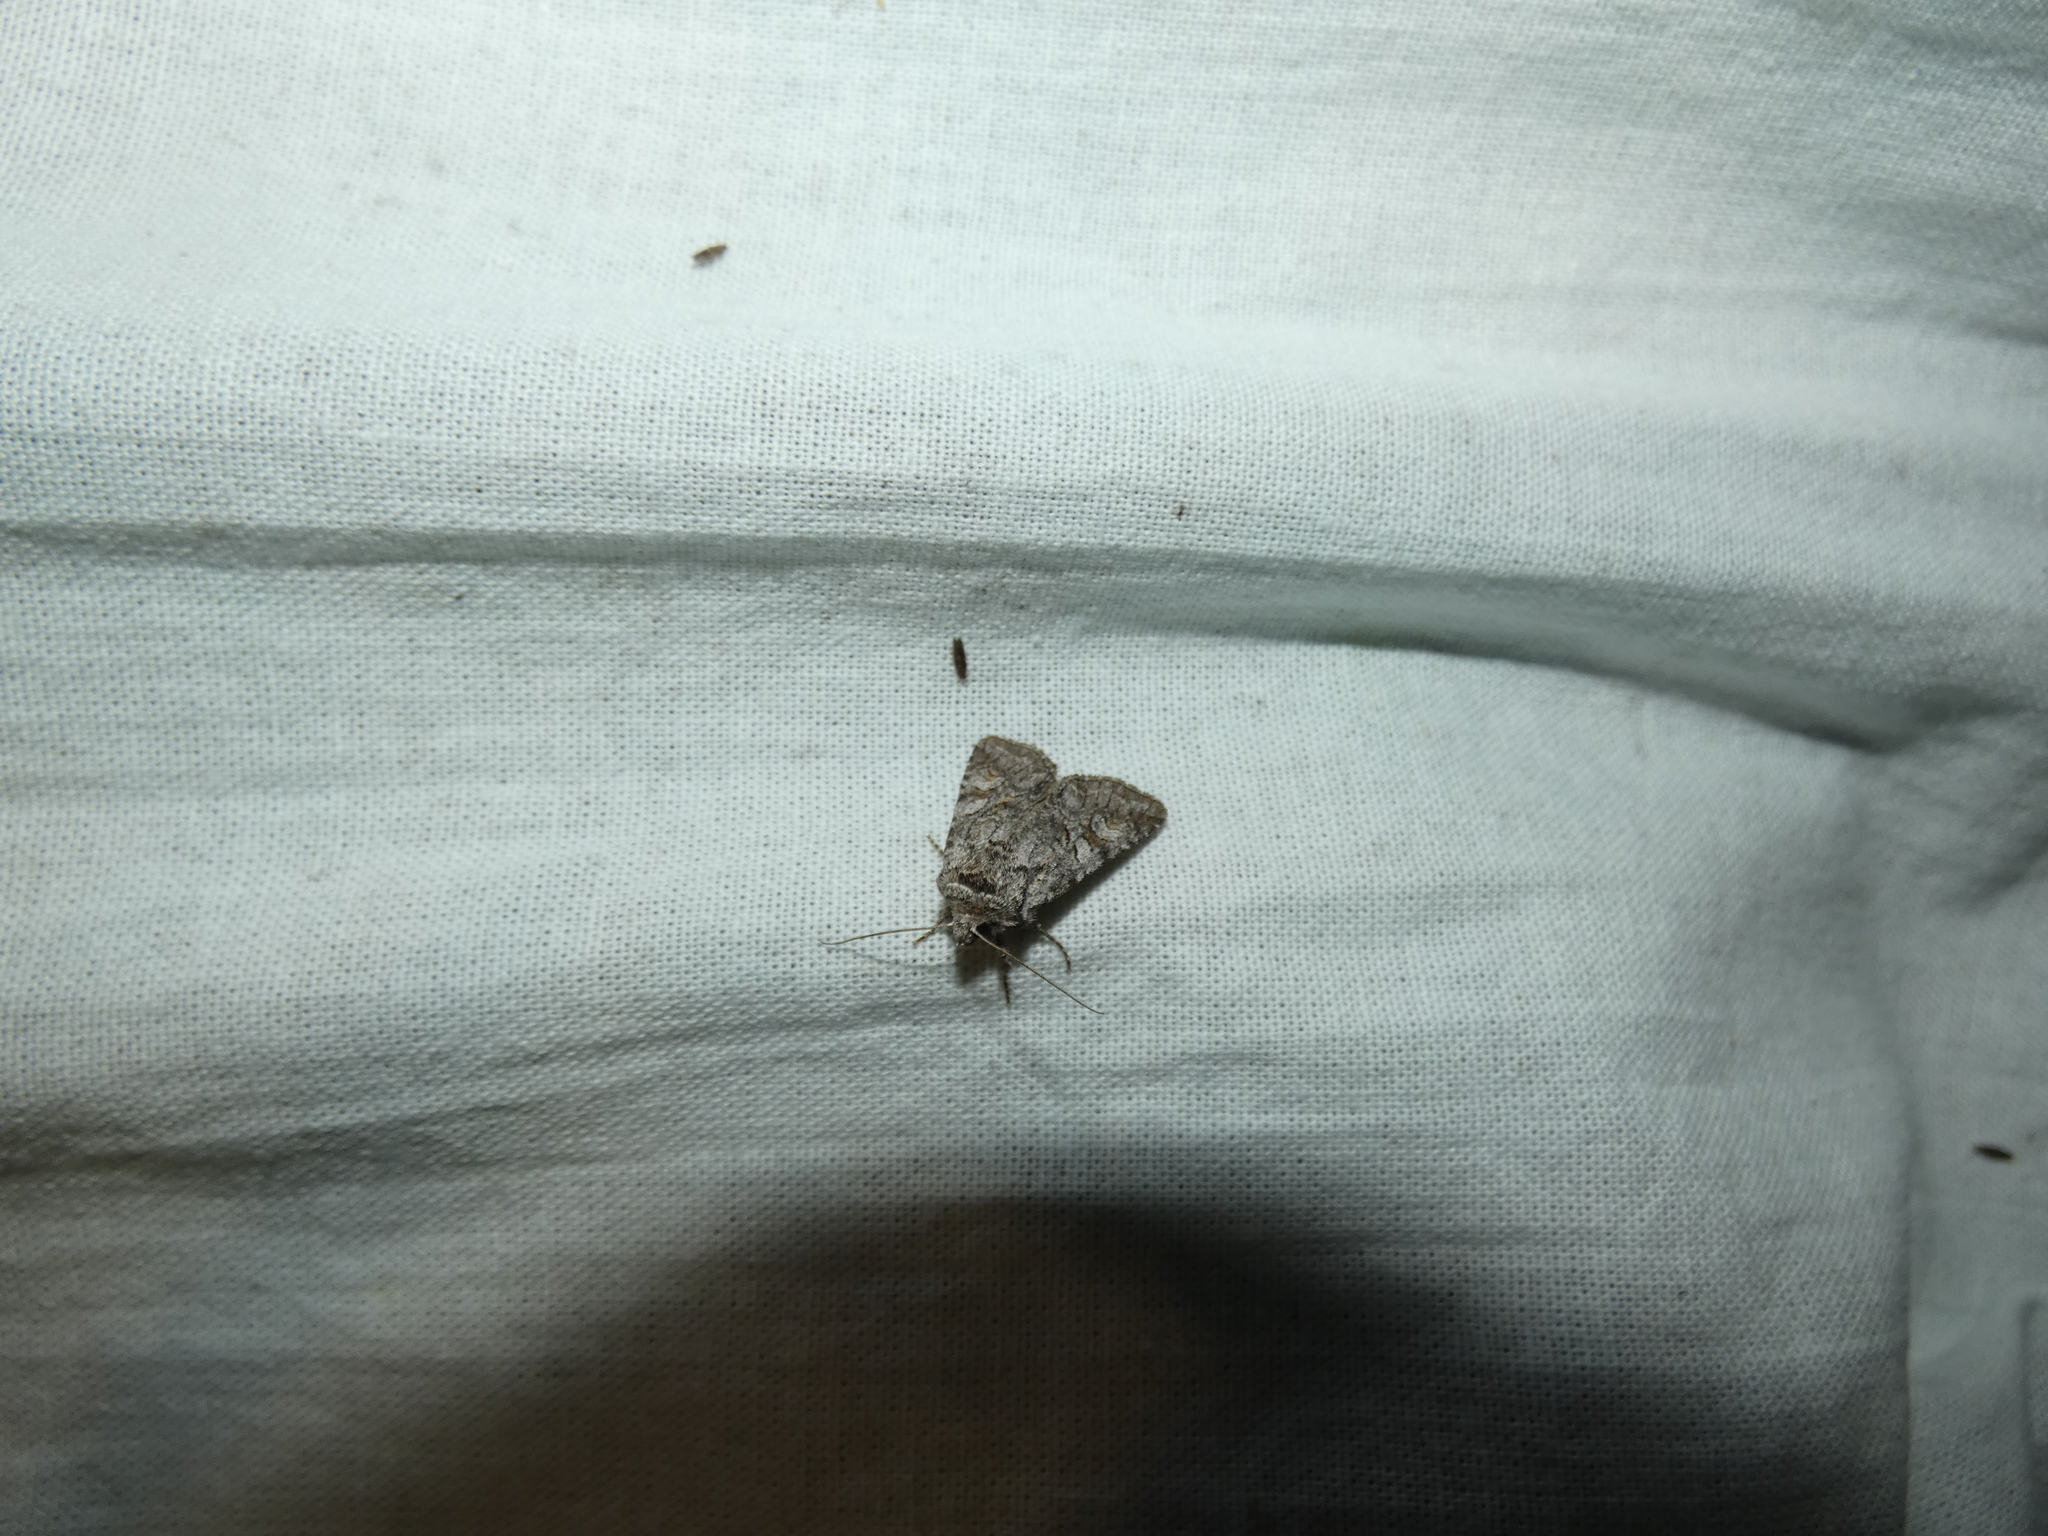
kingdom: Animalia
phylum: Arthropoda
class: Insecta
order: Lepidoptera
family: Noctuidae
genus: Brachylomia
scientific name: Brachylomia viminalis
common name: Minor shoulder-knot
